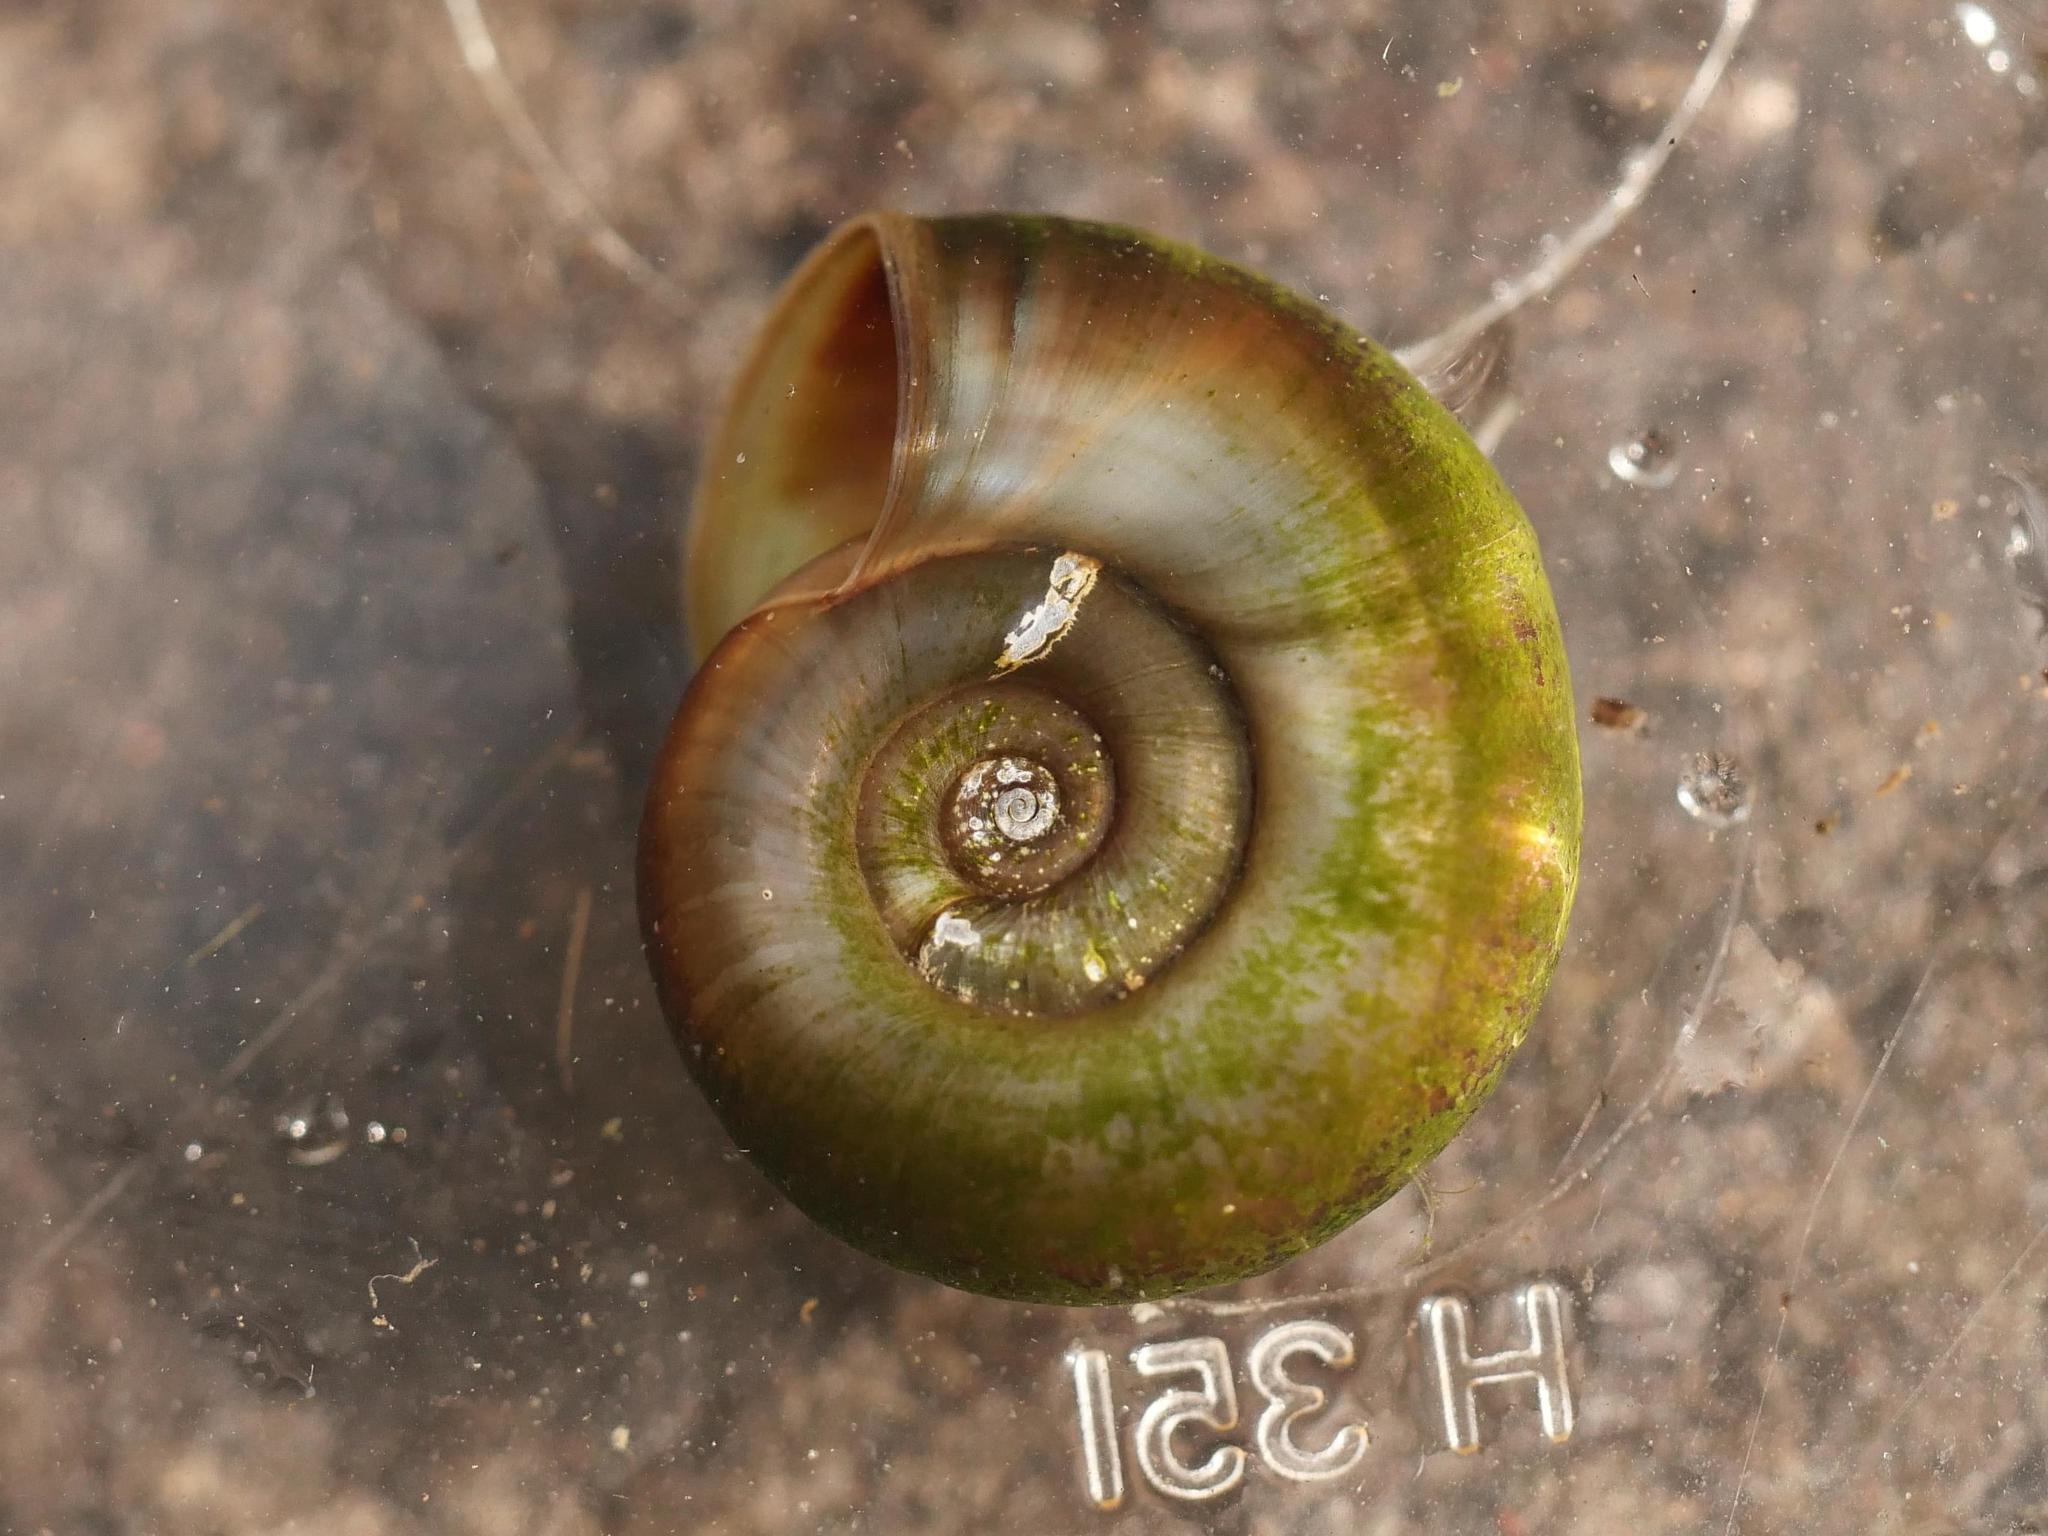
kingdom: Animalia
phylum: Mollusca
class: Gastropoda
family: Planorbidae
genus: Planorbarius
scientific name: Planorbarius corneus
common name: Great ramshorn
